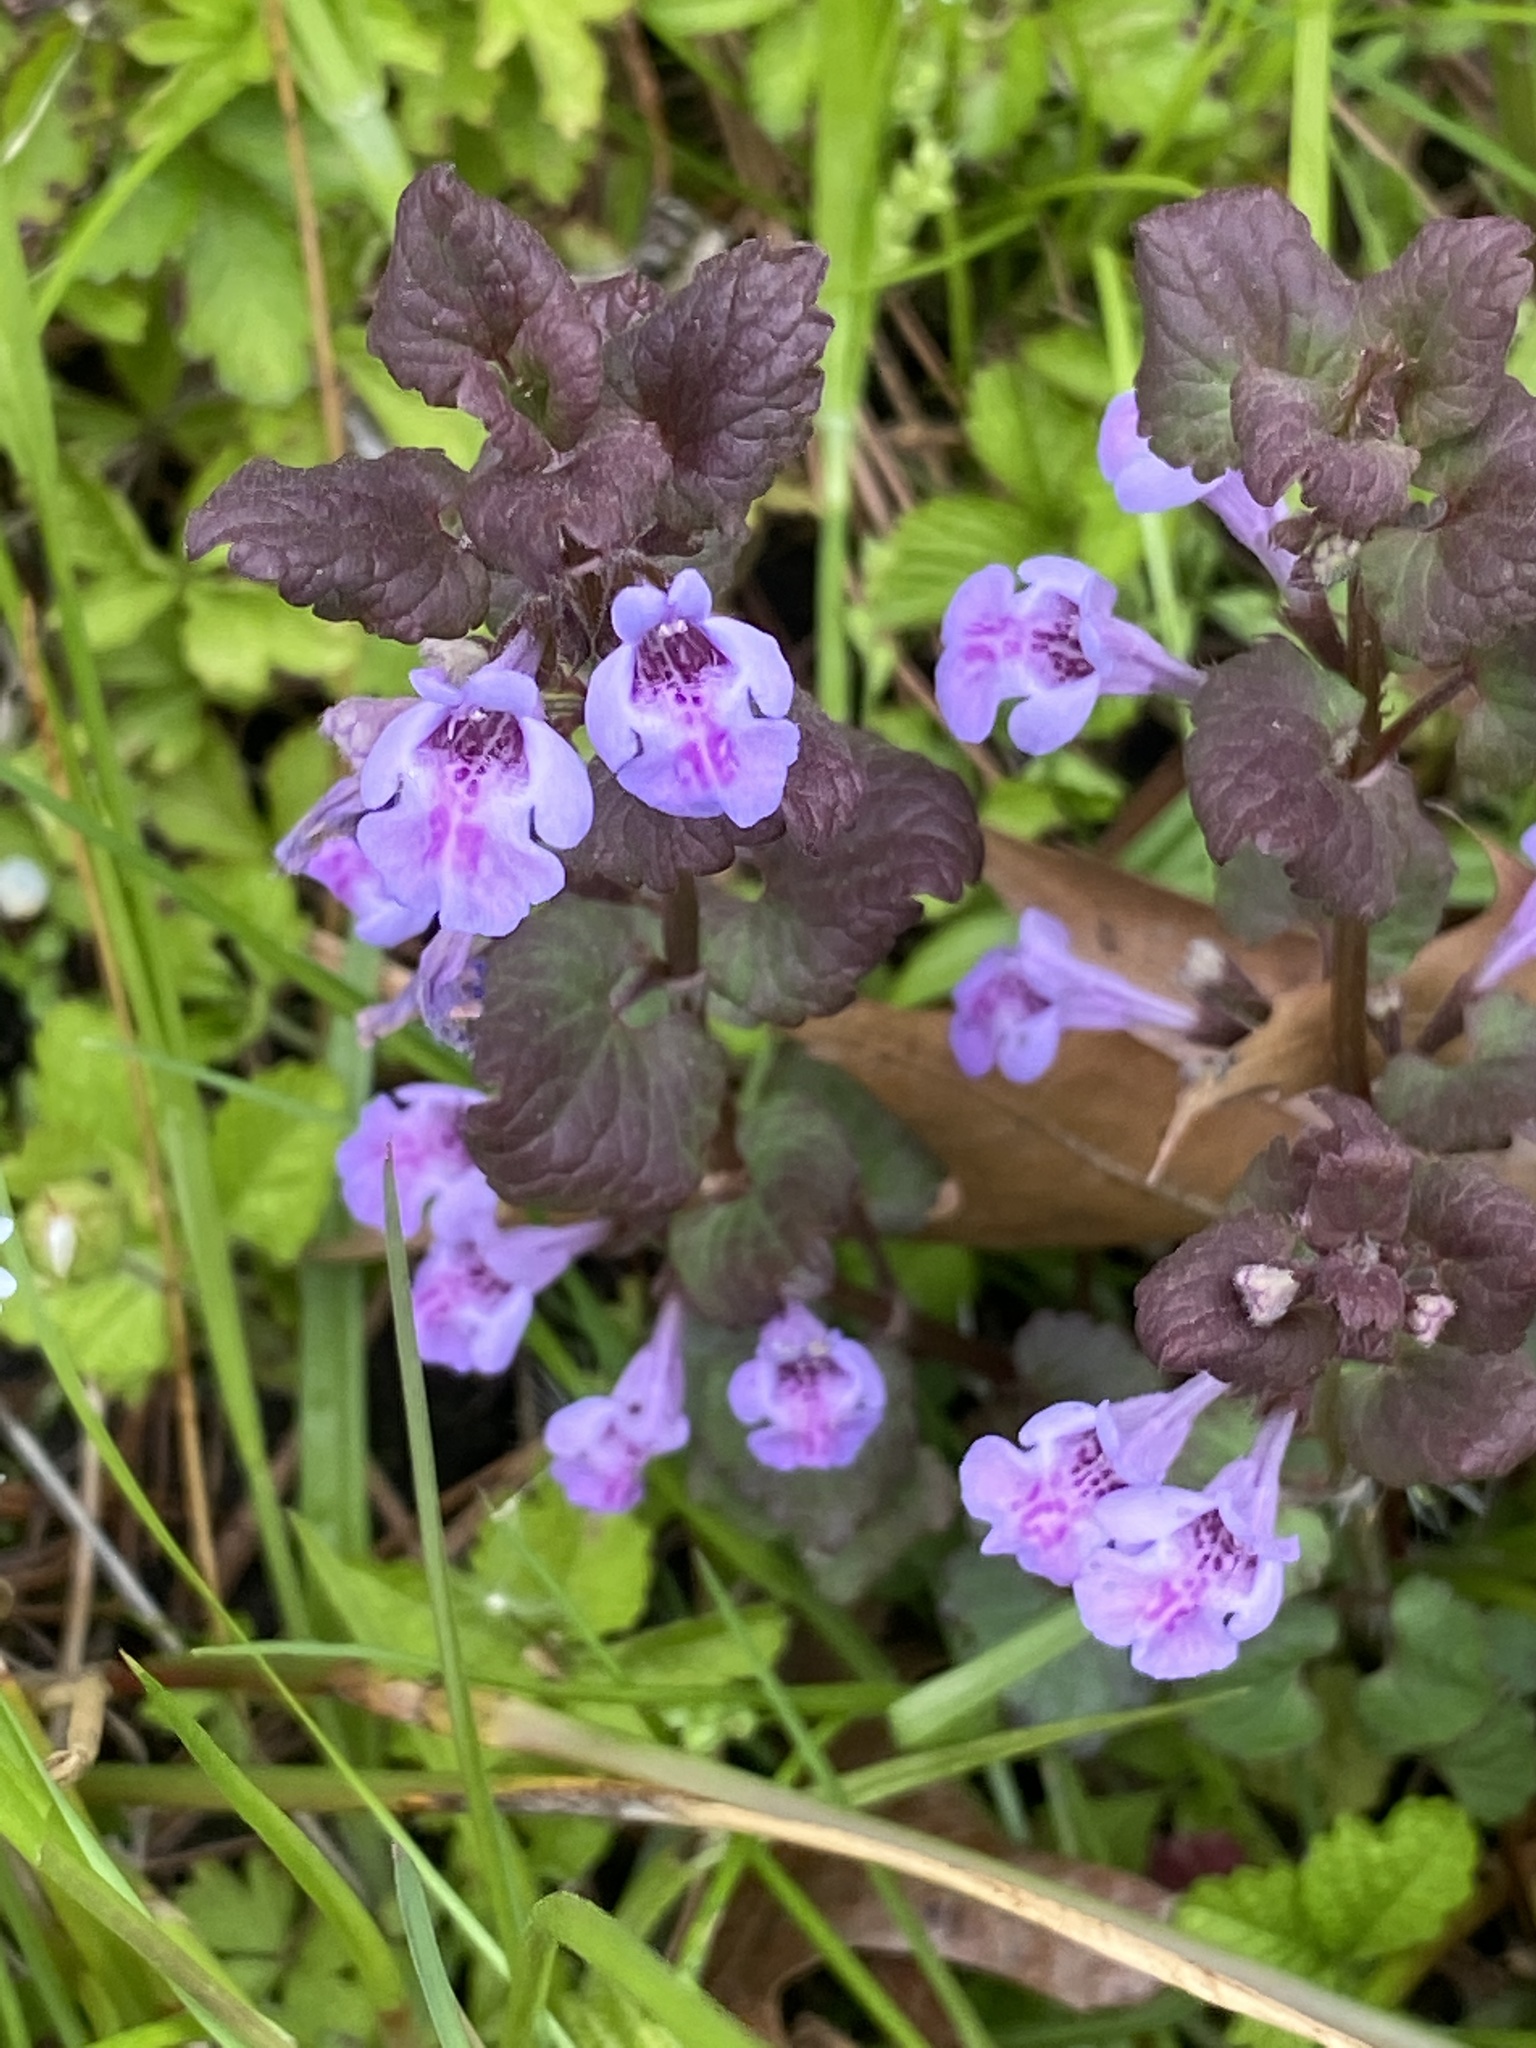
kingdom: Plantae
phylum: Tracheophyta
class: Magnoliopsida
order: Lamiales
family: Lamiaceae
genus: Glechoma
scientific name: Glechoma hederacea
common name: Ground ivy
